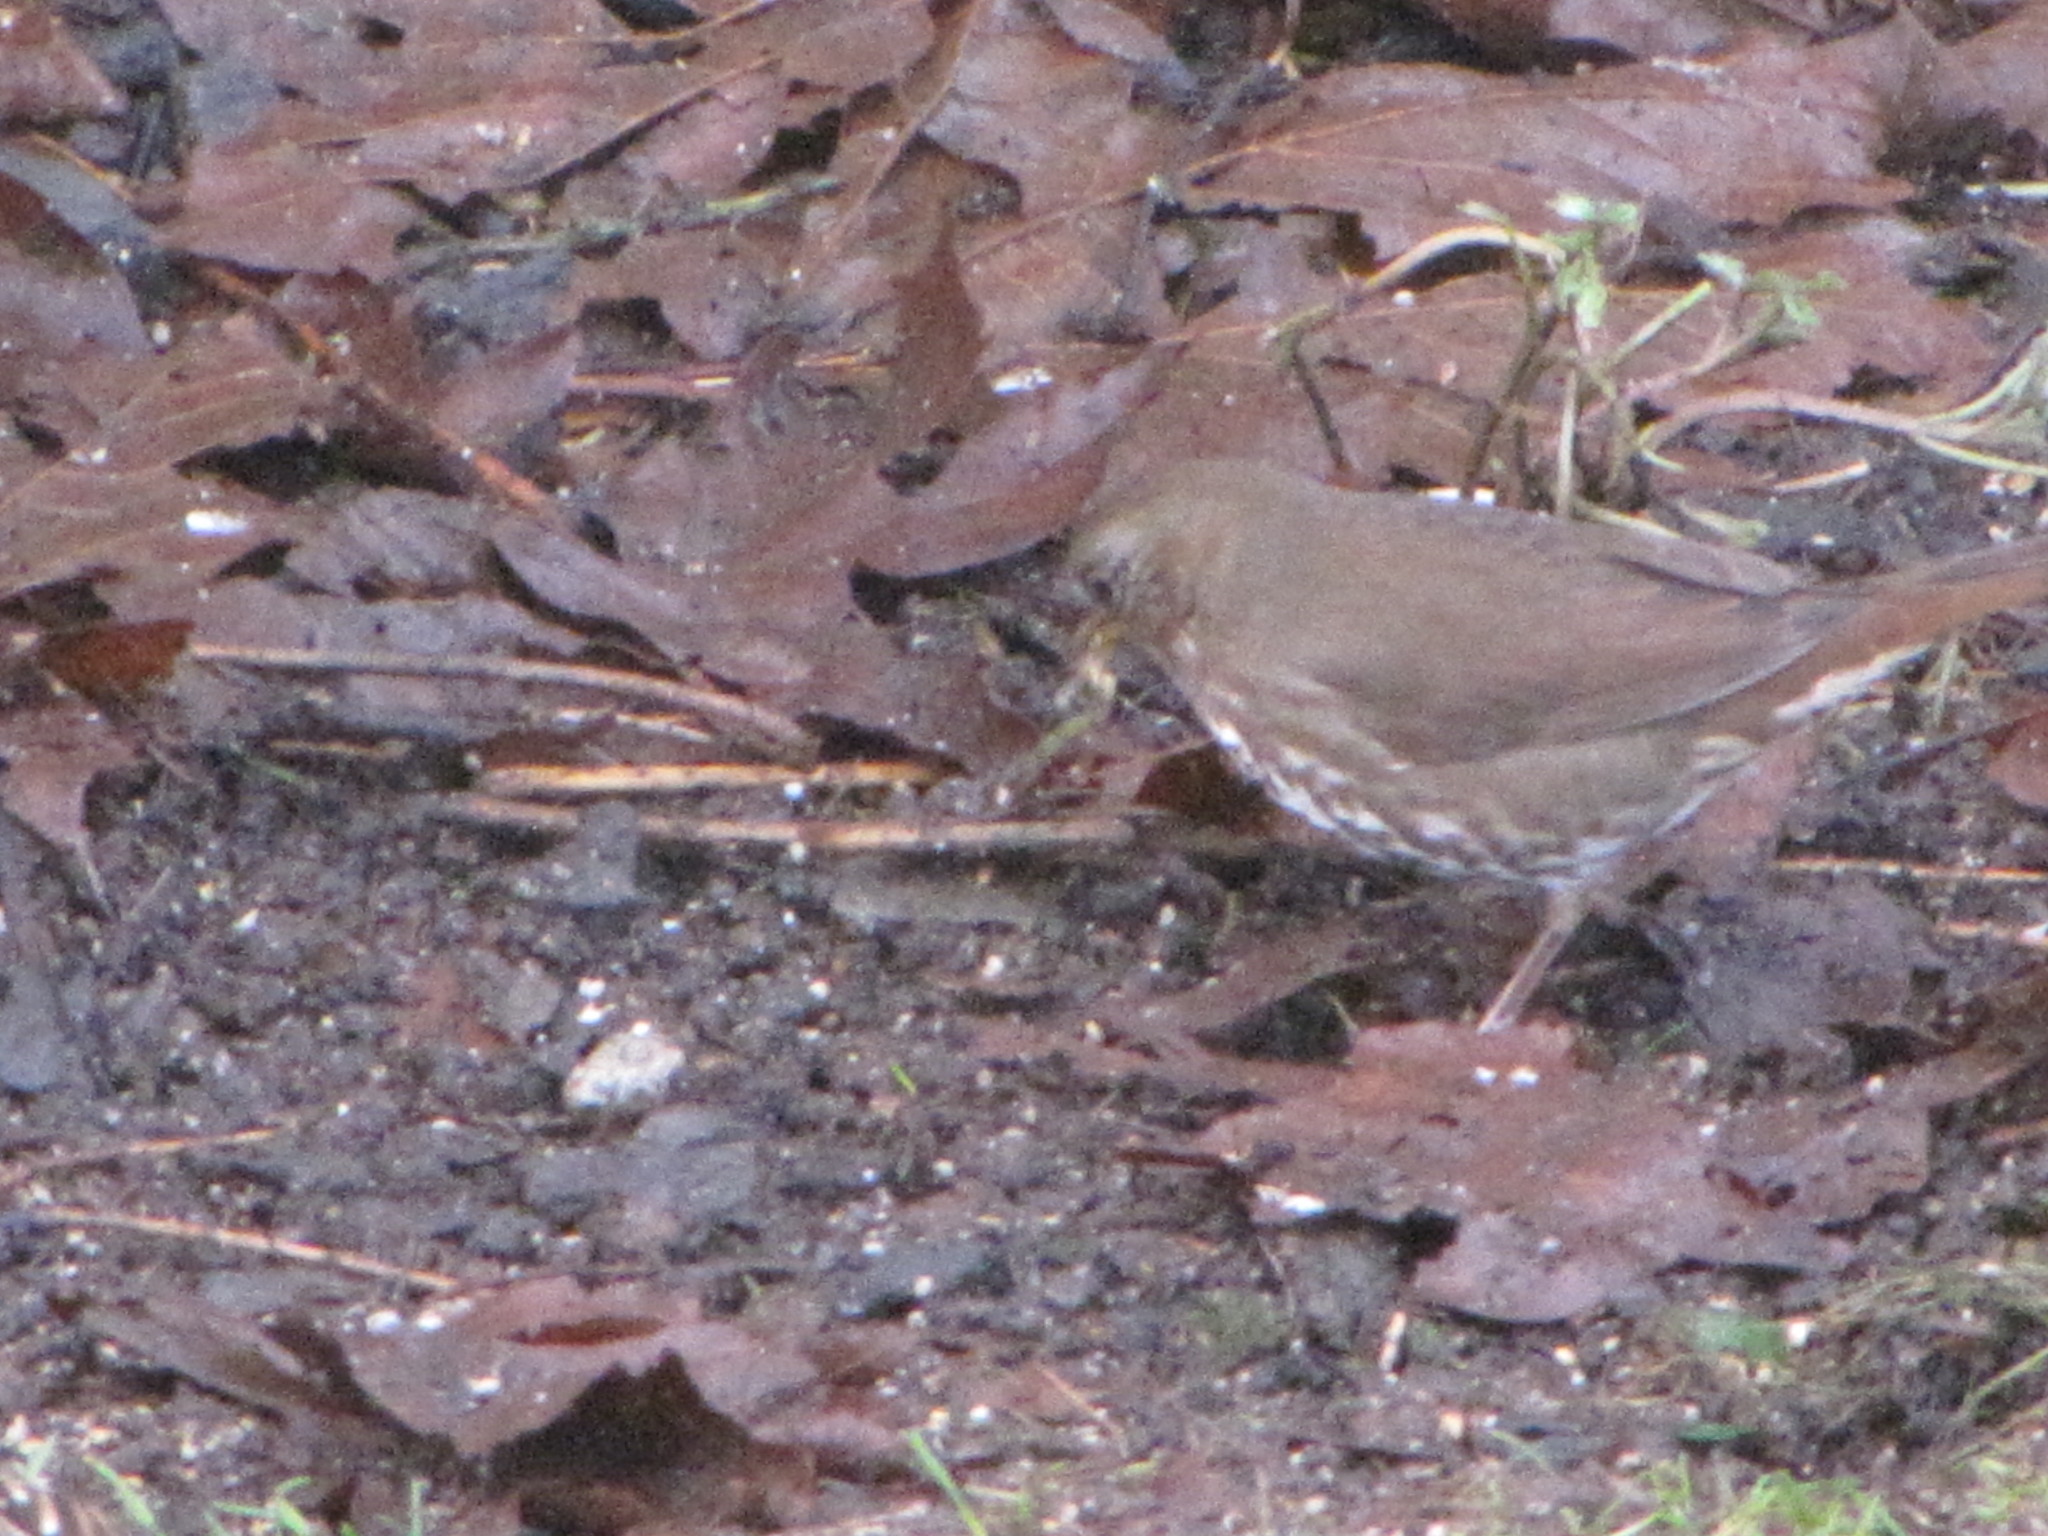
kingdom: Animalia
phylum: Chordata
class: Aves
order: Passeriformes
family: Passerellidae
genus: Passerella
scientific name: Passerella iliaca
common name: Fox sparrow
